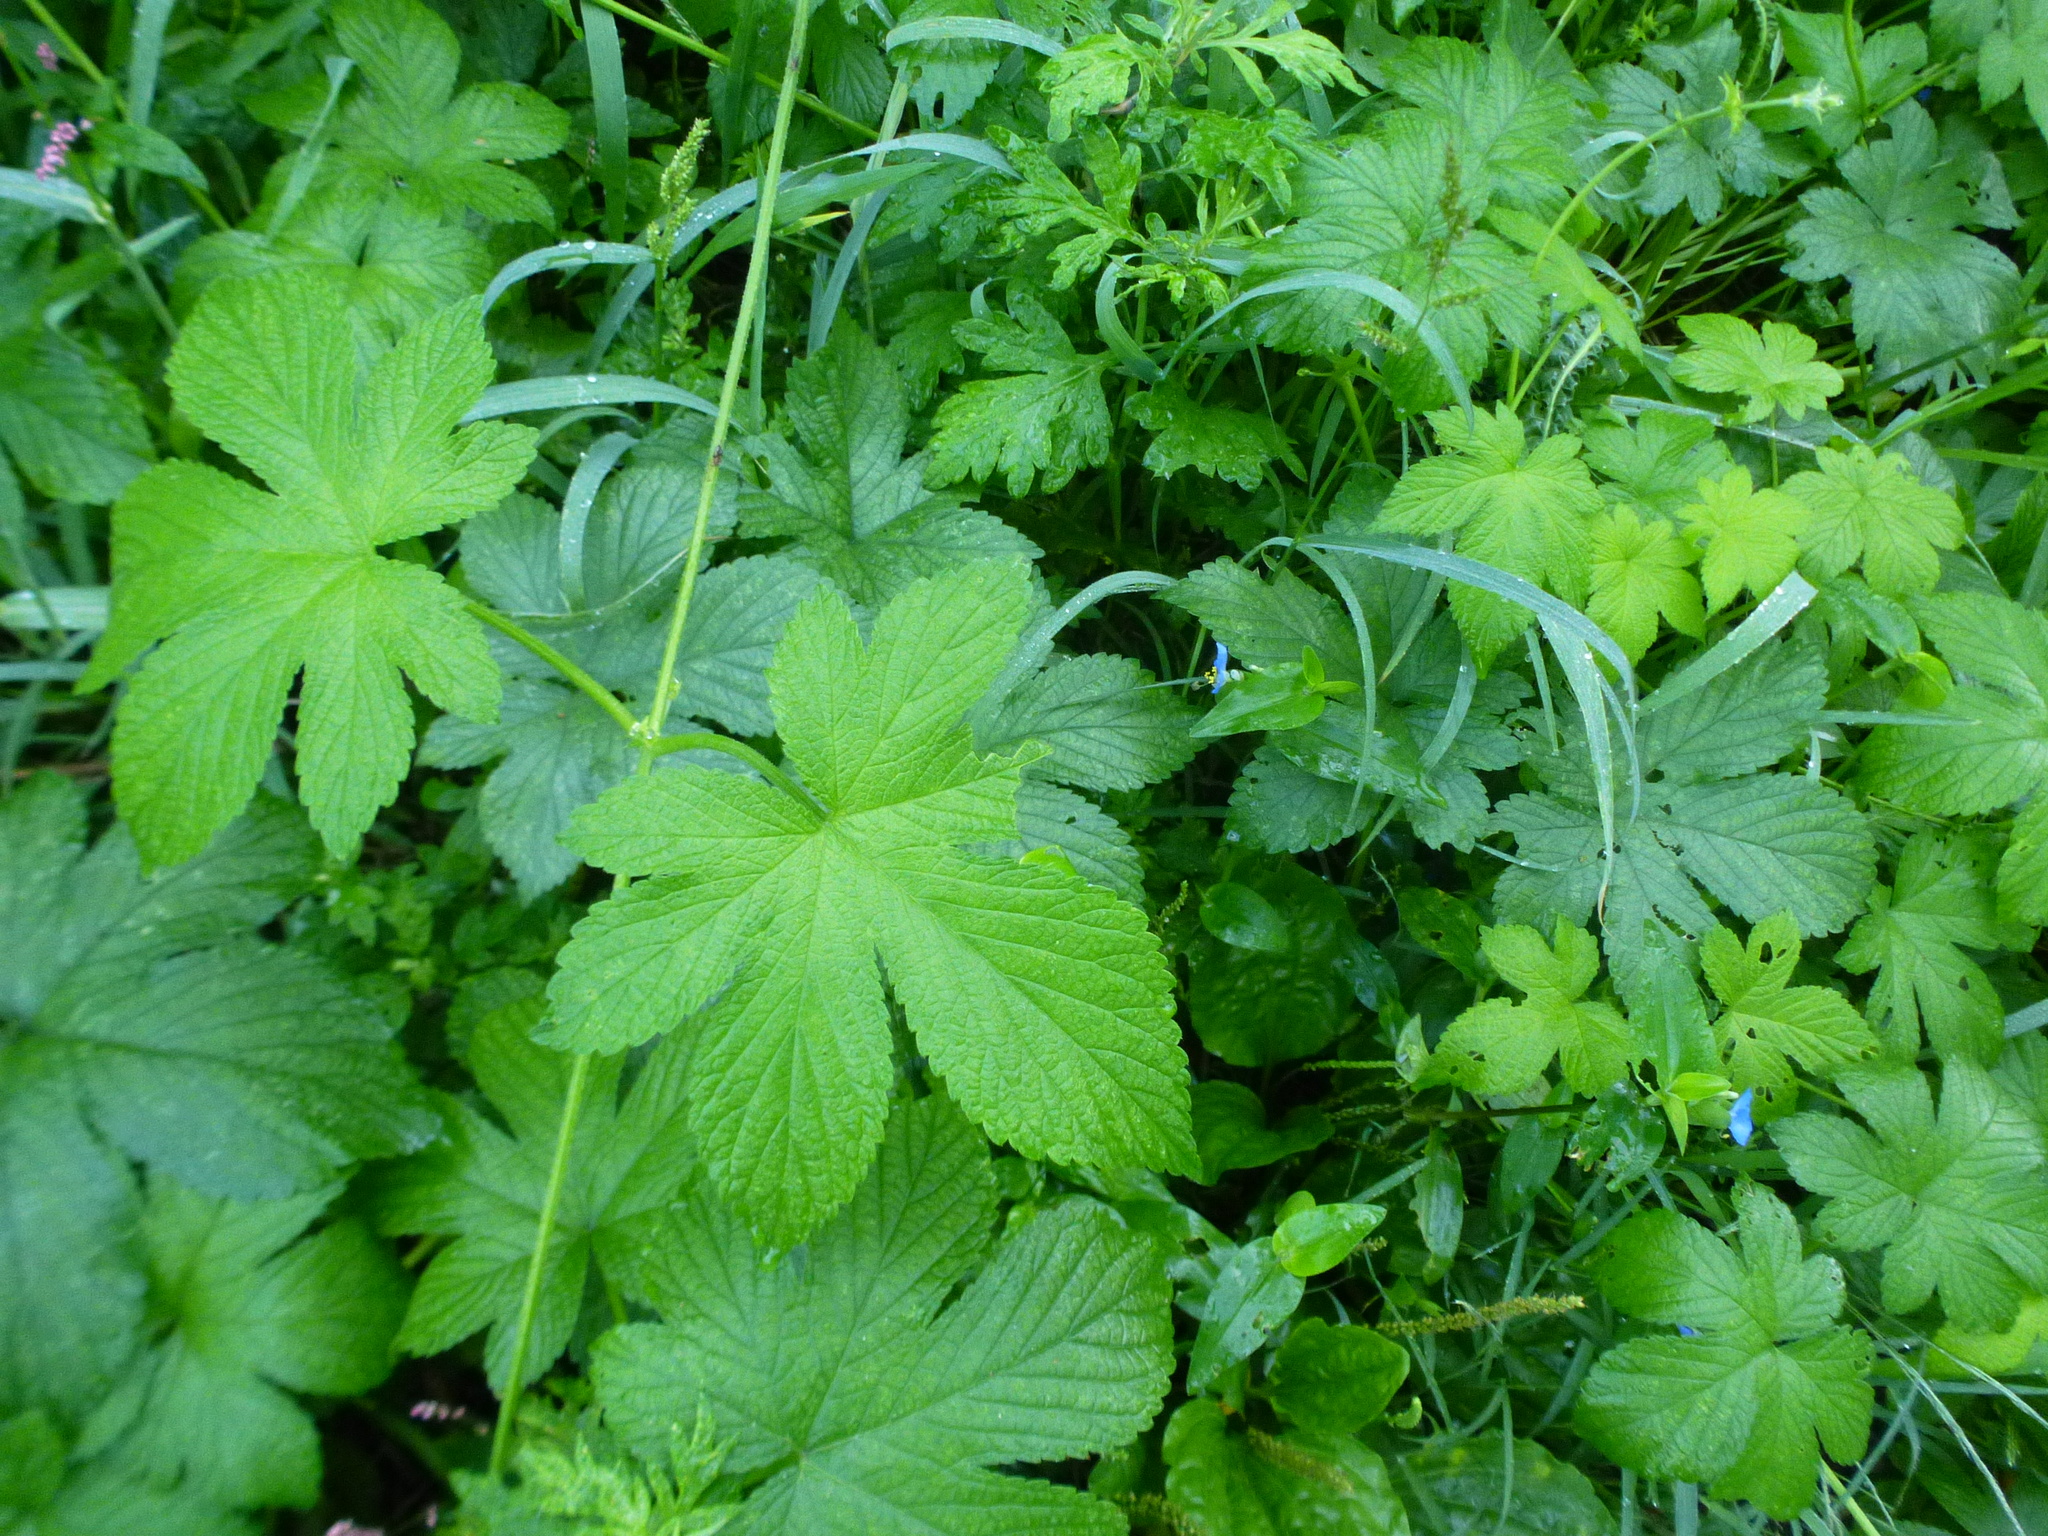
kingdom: Plantae
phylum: Tracheophyta
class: Magnoliopsida
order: Rosales
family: Cannabaceae
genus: Humulus
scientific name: Humulus scandens
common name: Japanese hop
